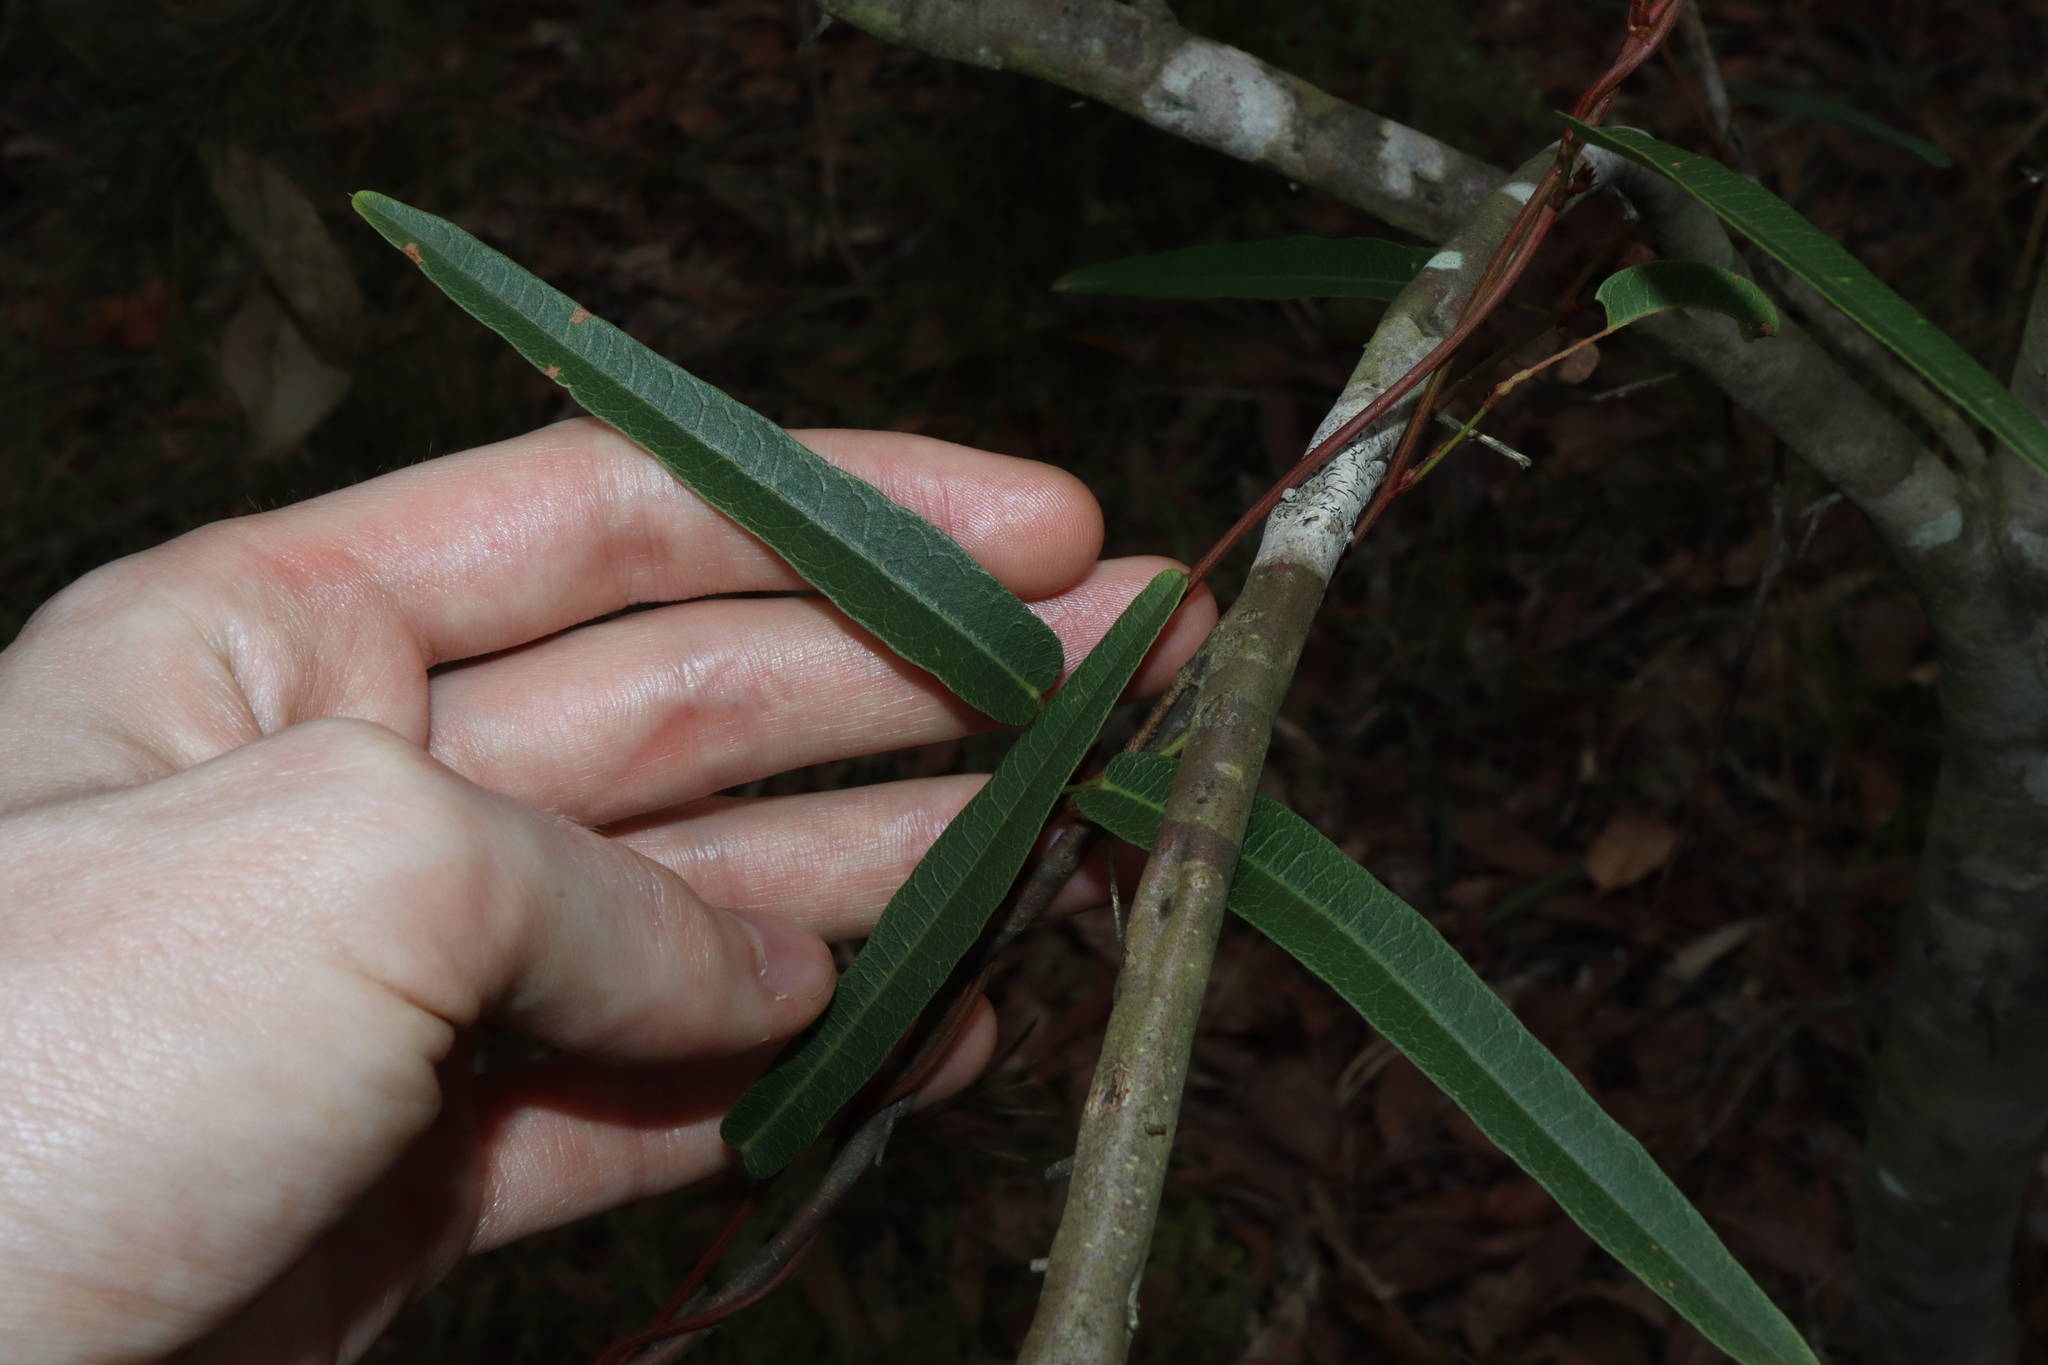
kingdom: Plantae
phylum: Tracheophyta
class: Magnoliopsida
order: Fabales
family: Fabaceae
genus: Hardenbergia
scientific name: Hardenbergia violacea
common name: Coral-pea
